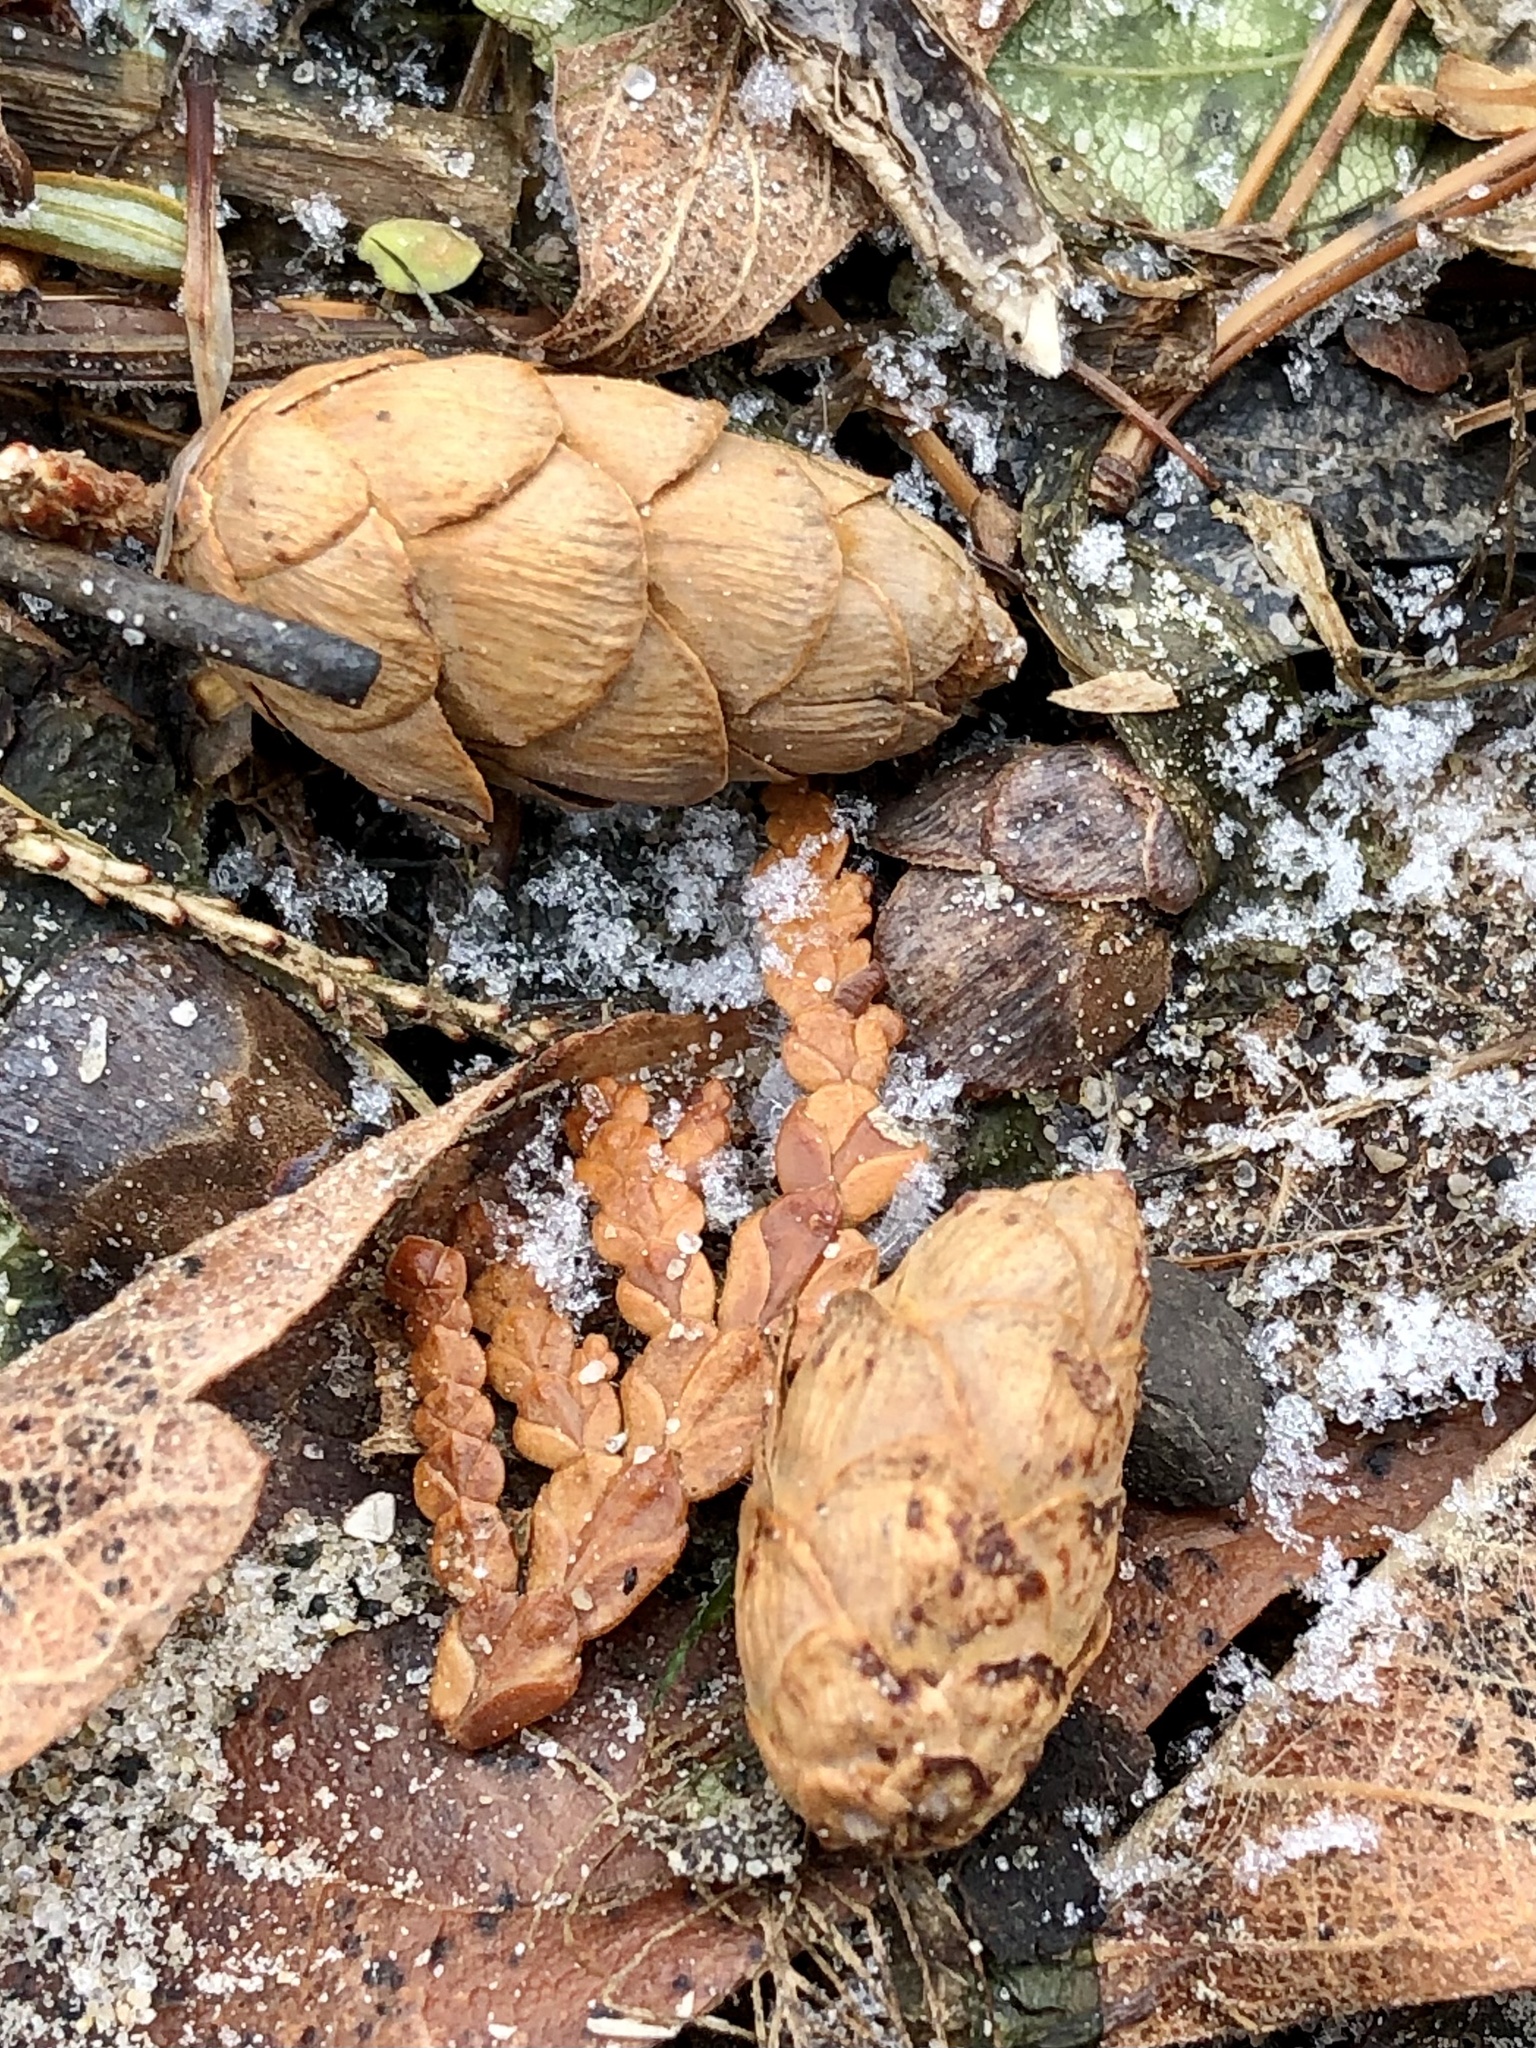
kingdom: Plantae
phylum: Tracheophyta
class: Pinopsida
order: Pinales
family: Pinaceae
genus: Tsuga
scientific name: Tsuga canadensis
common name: Eastern hemlock
